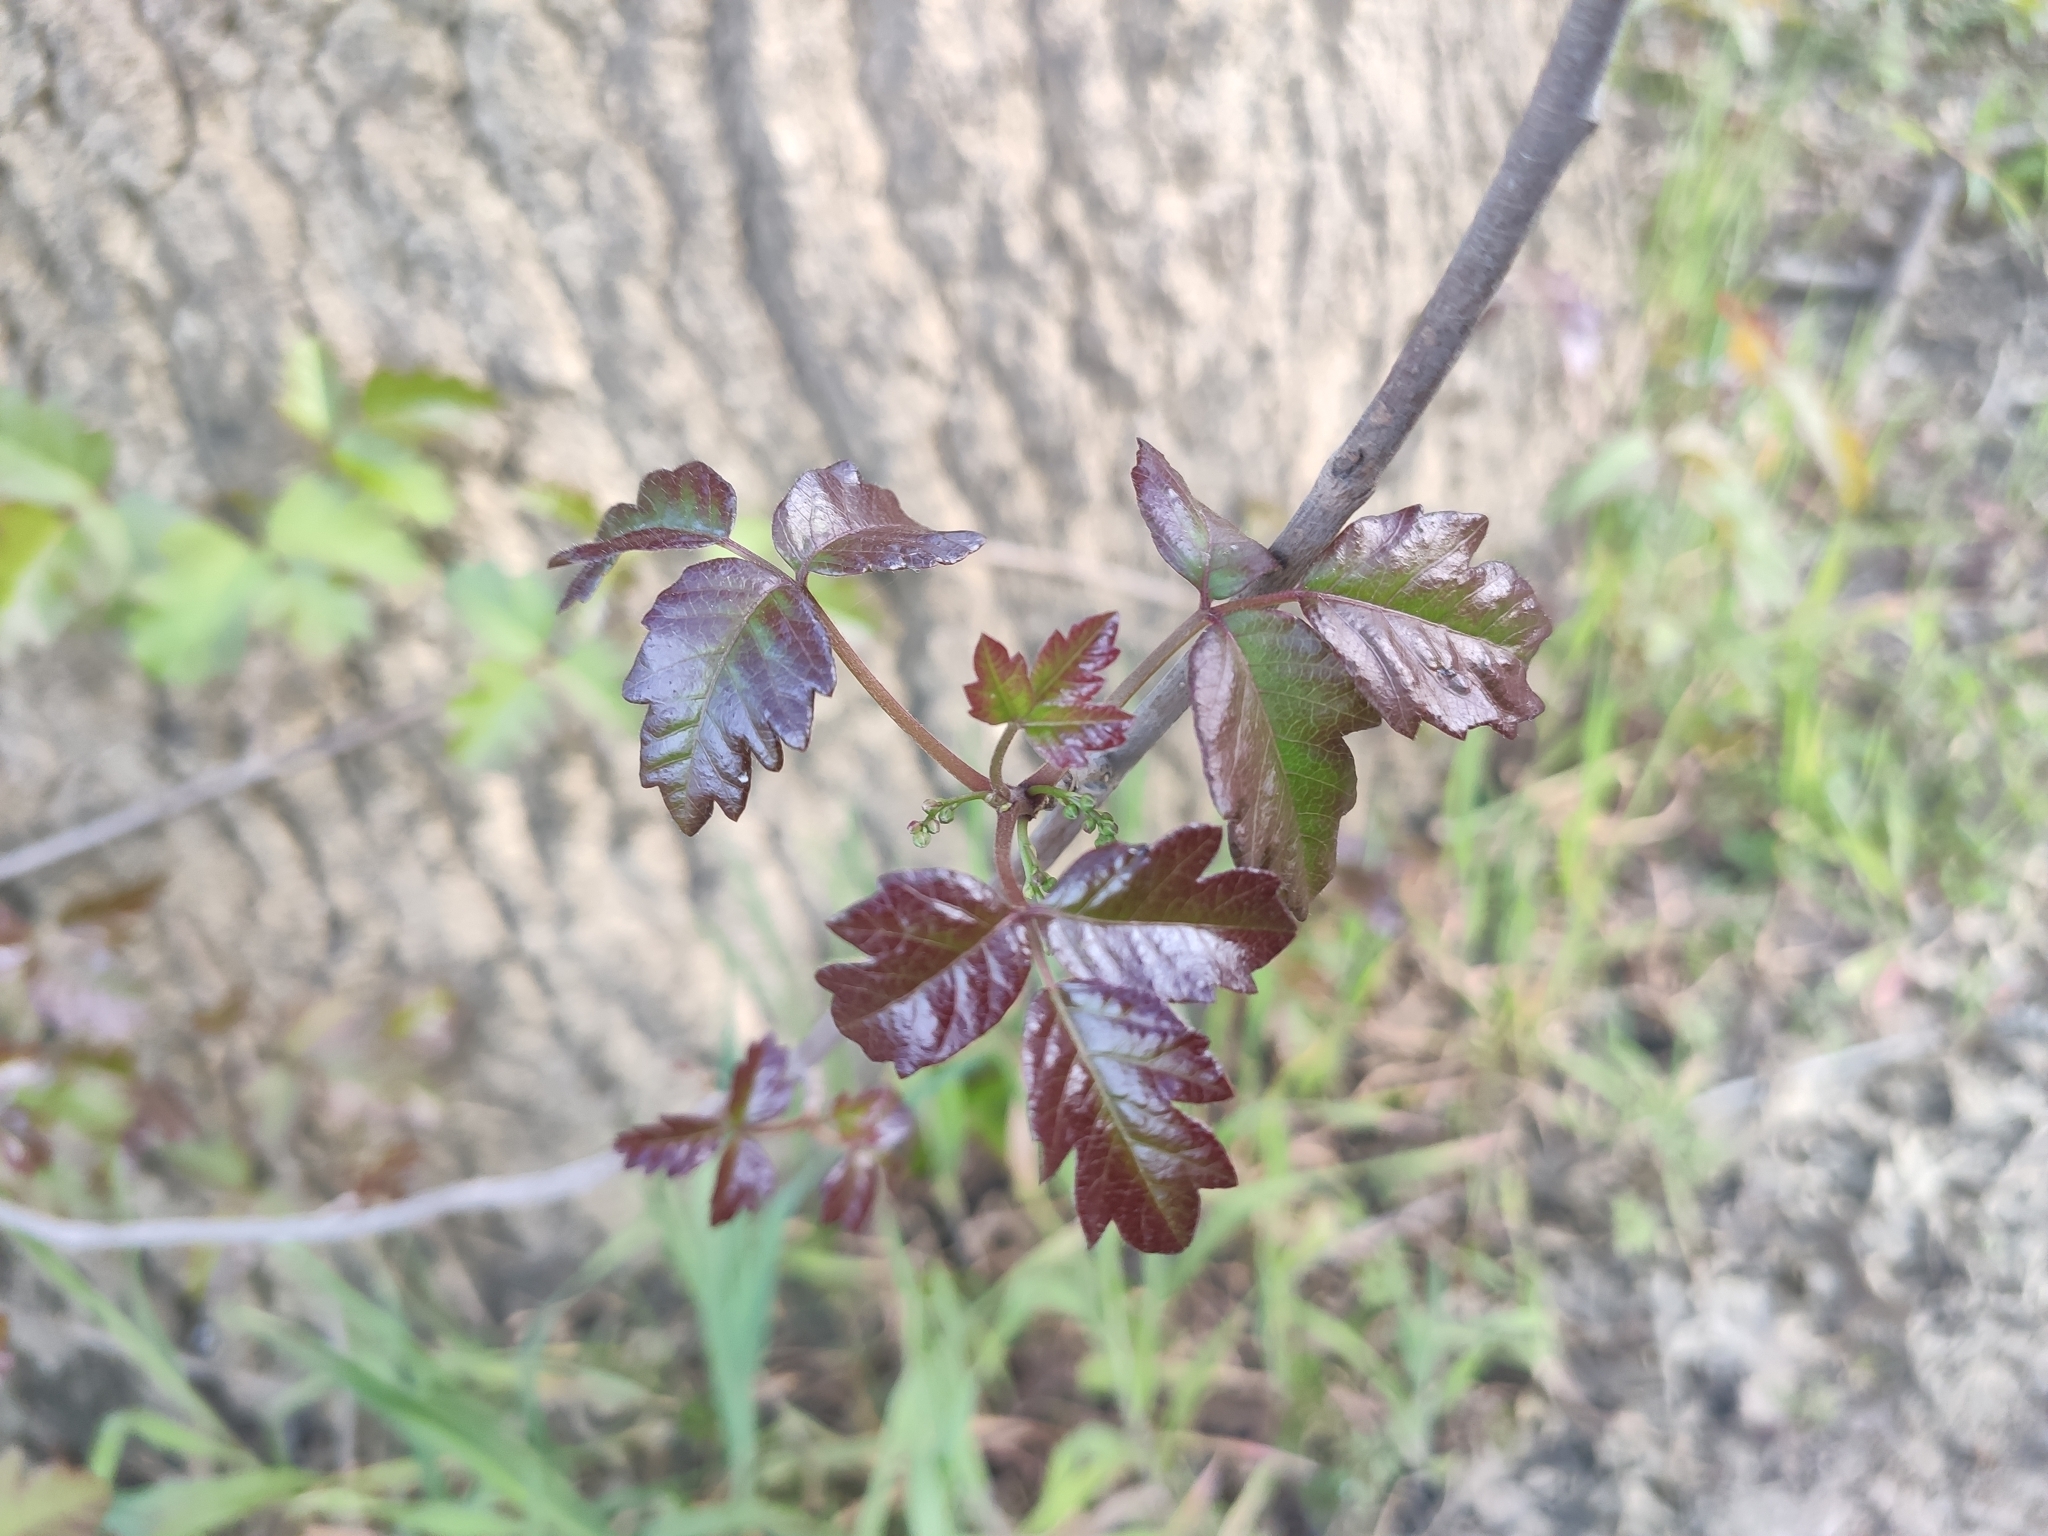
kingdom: Plantae
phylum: Tracheophyta
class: Magnoliopsida
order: Sapindales
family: Anacardiaceae
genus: Toxicodendron
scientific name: Toxicodendron diversilobum
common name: Pacific poison-oak
